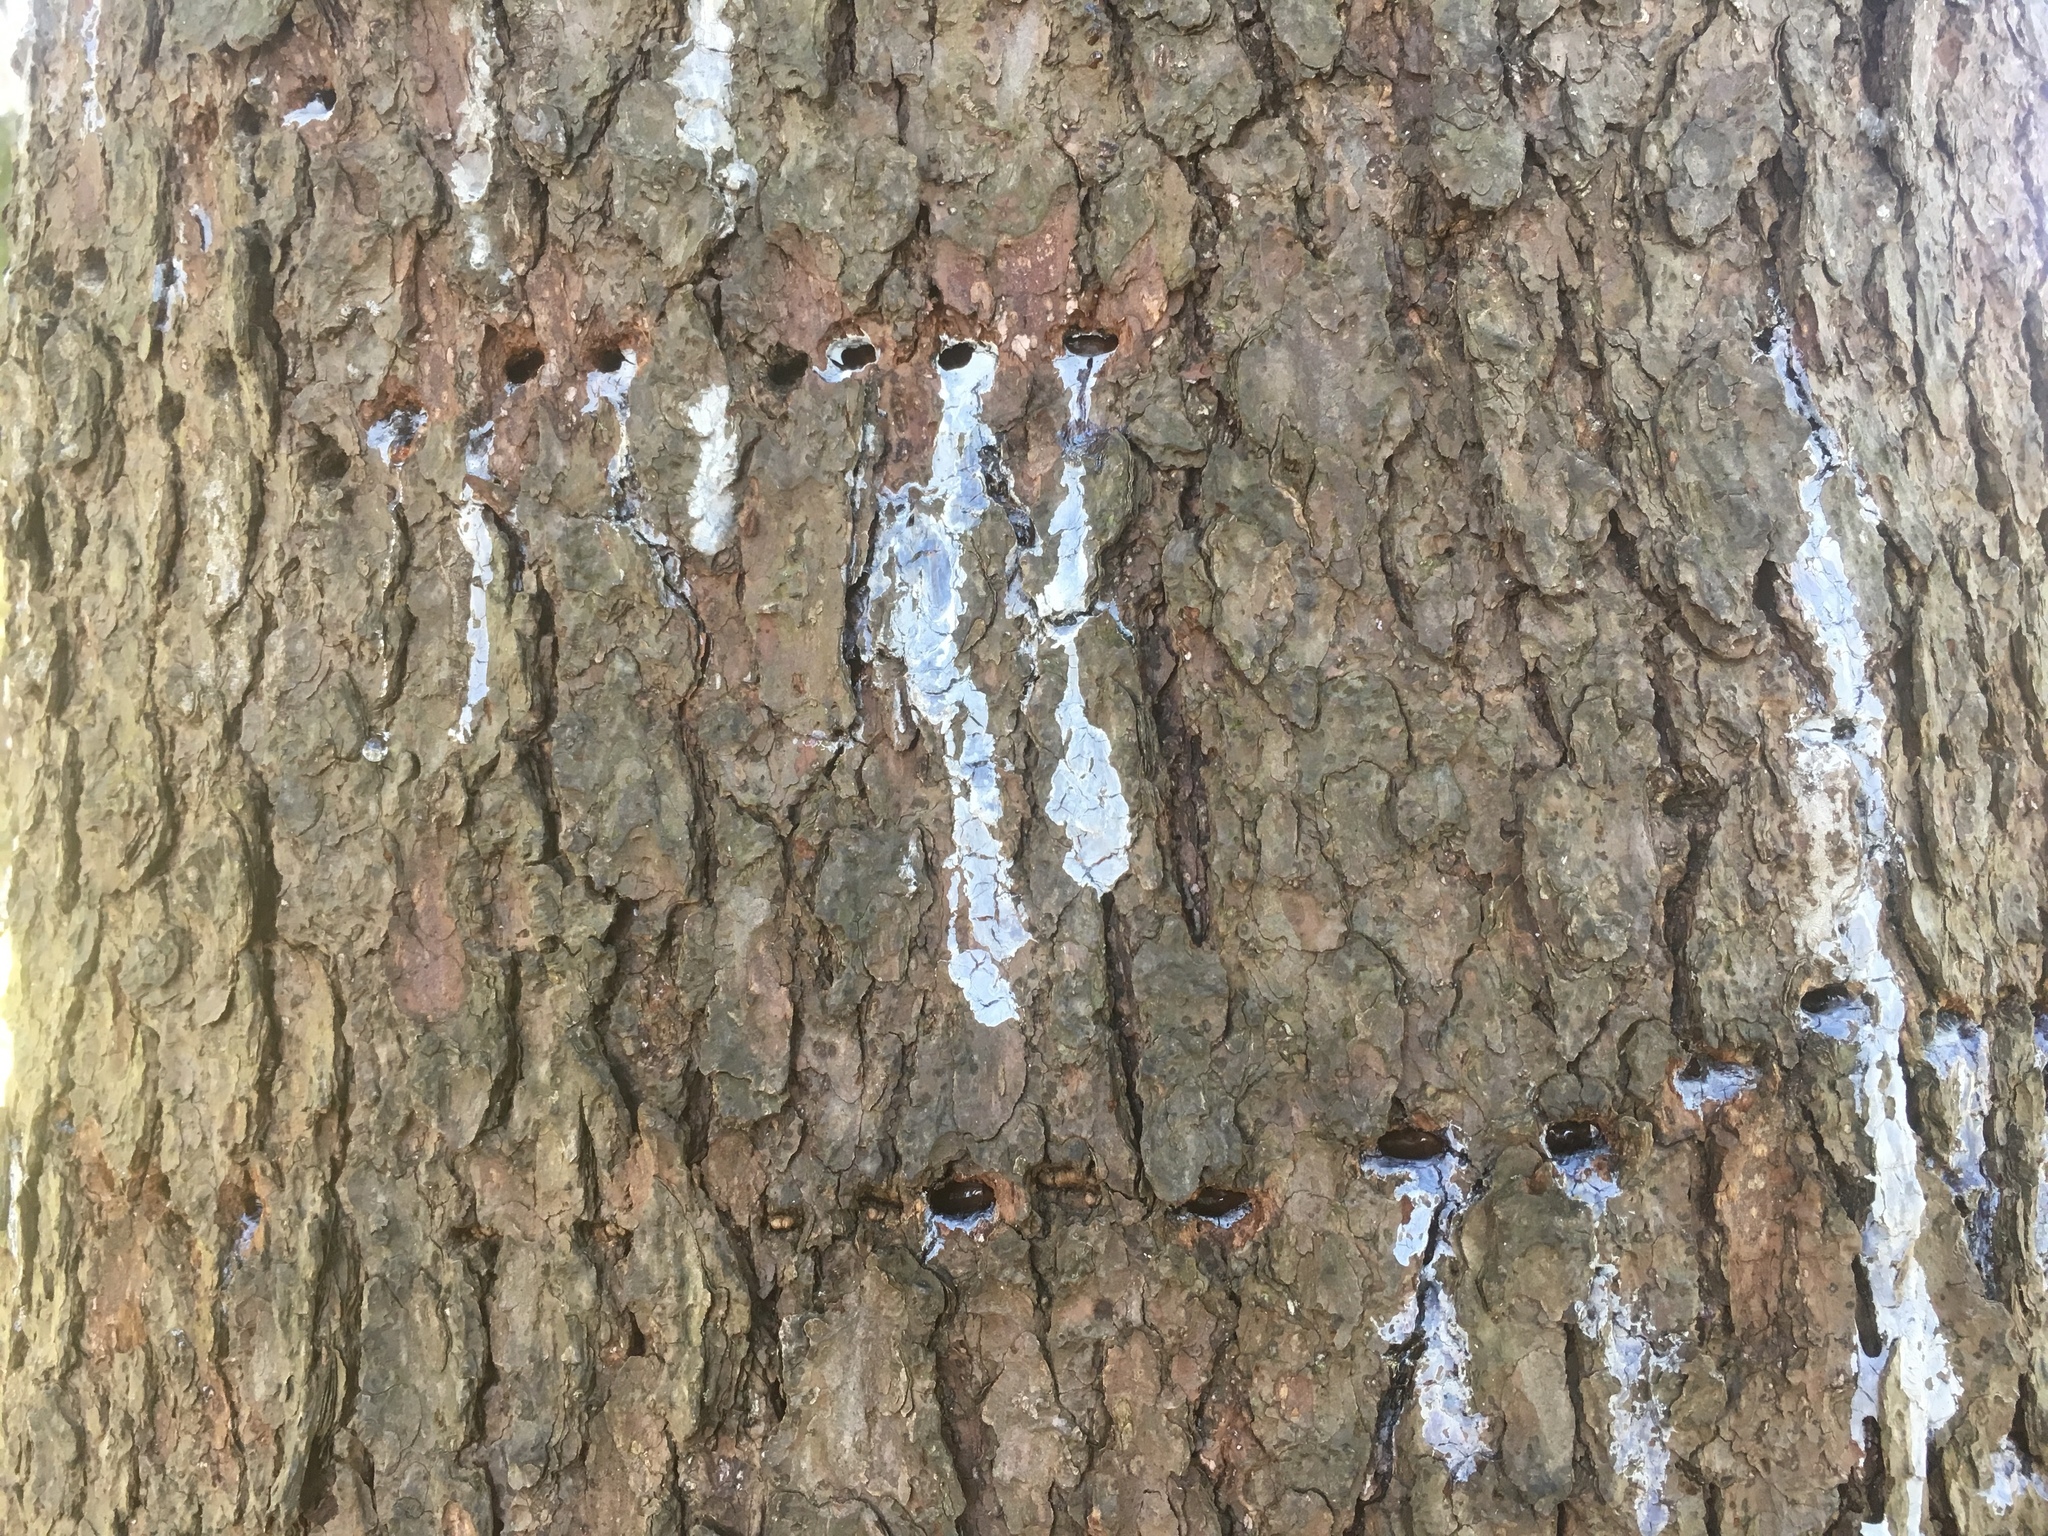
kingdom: Animalia
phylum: Chordata
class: Aves
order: Piciformes
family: Picidae
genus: Sphyrapicus
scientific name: Sphyrapicus varius
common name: Yellow-bellied sapsucker
